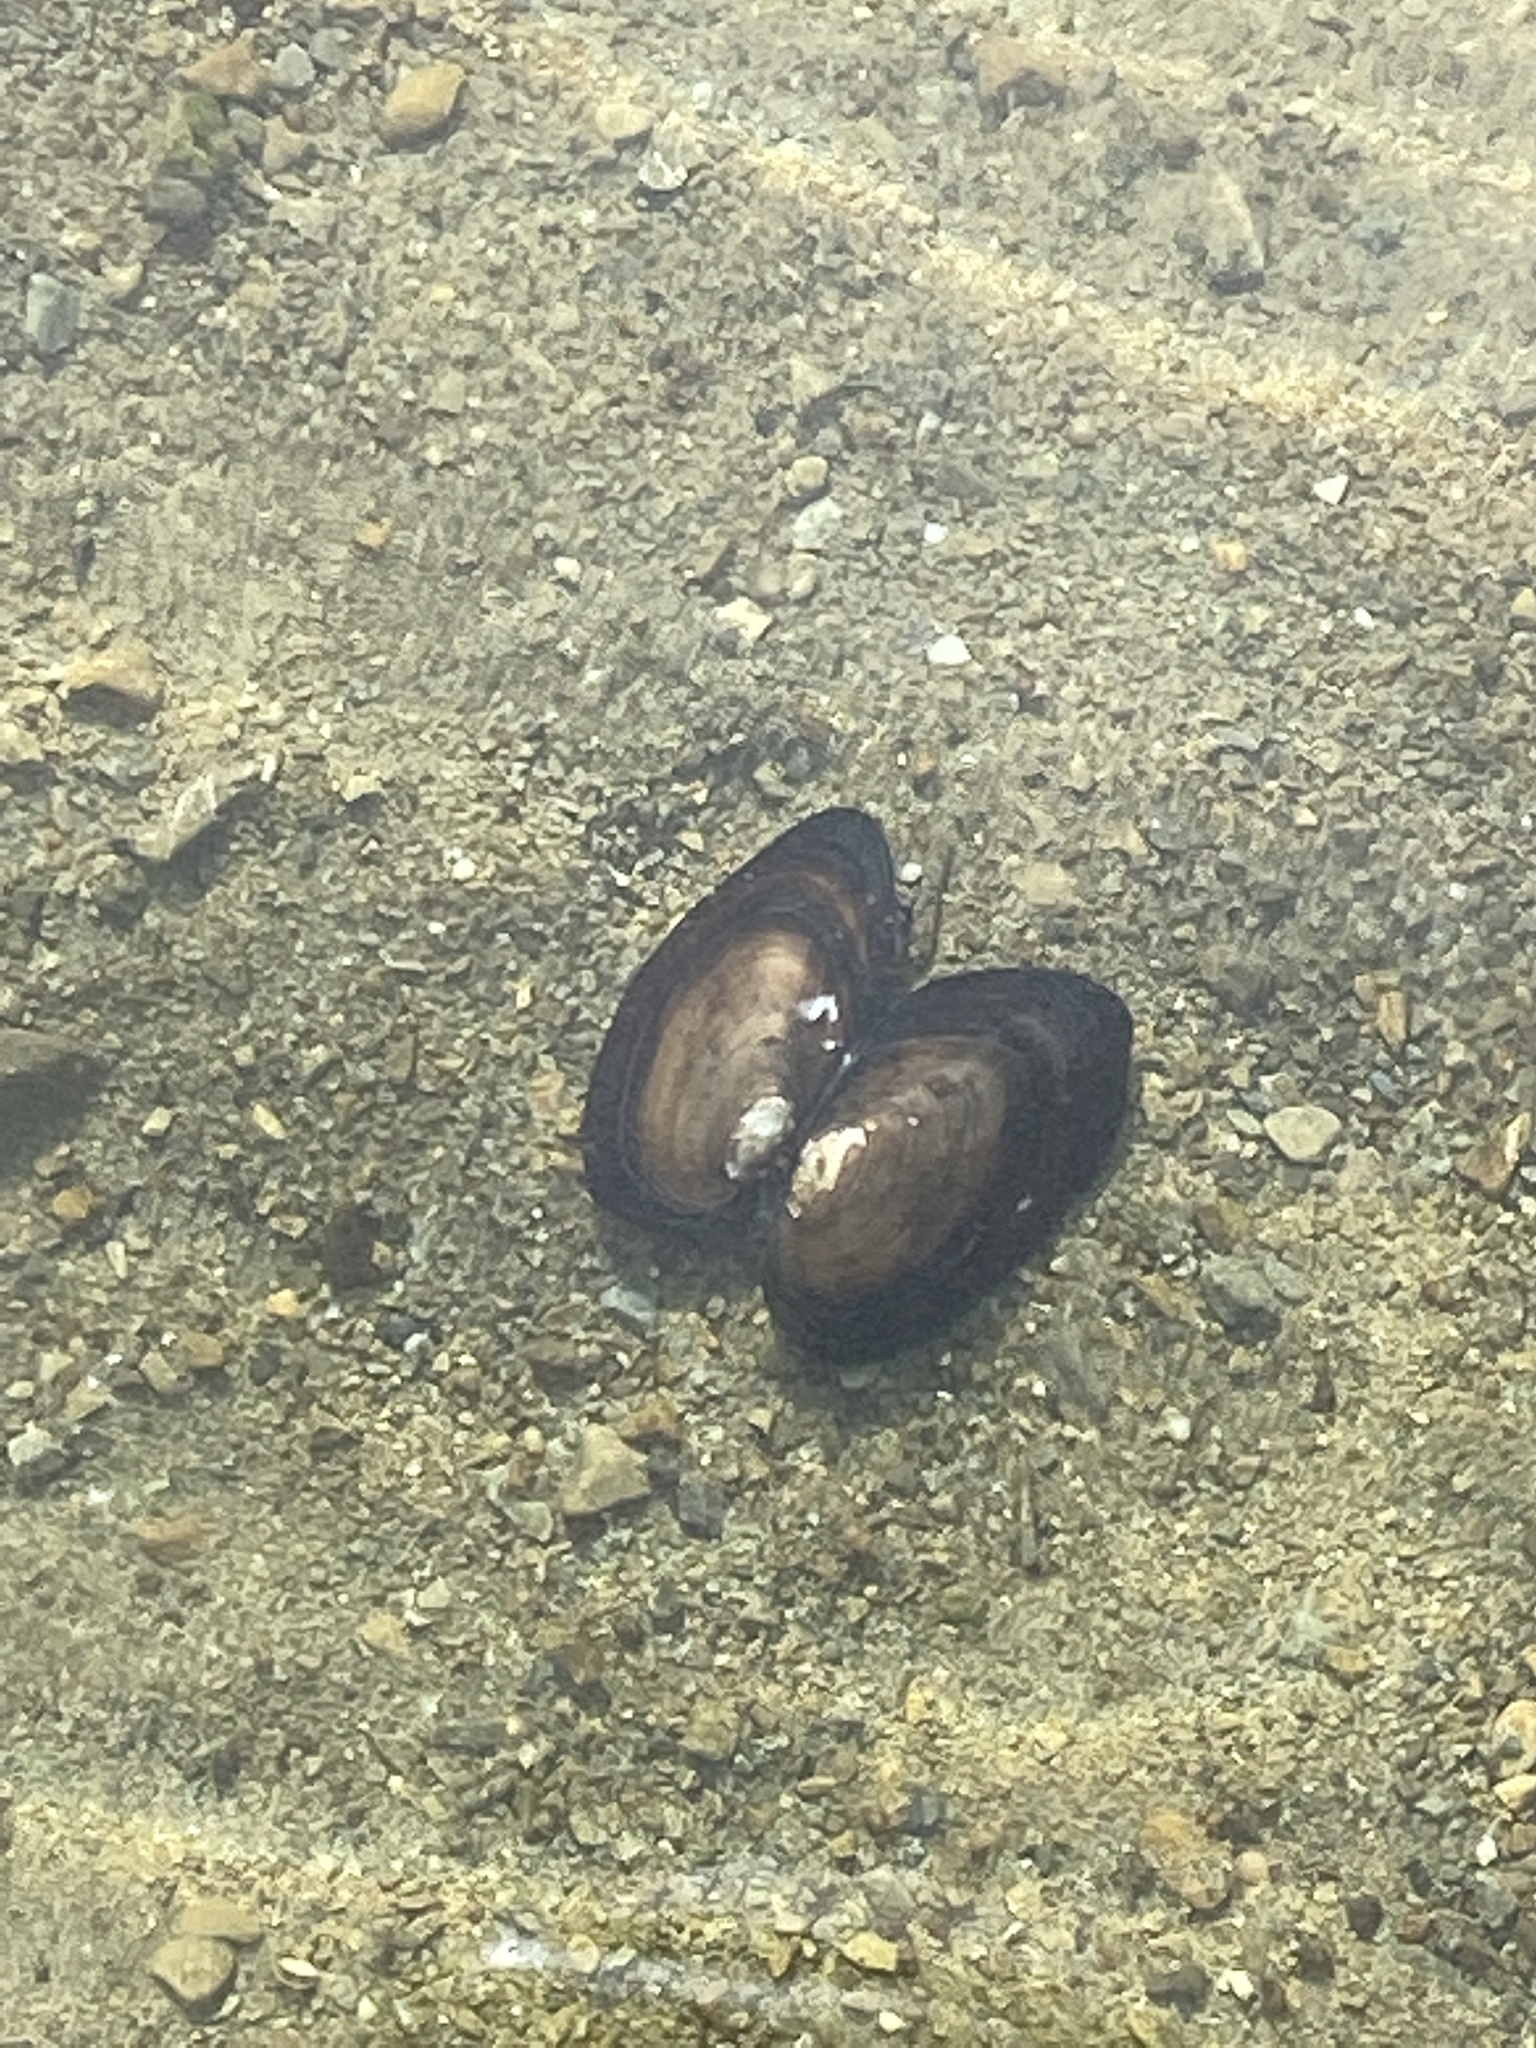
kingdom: Animalia
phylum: Mollusca
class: Bivalvia
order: Unionida
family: Hyriidae
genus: Echyridella
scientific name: Echyridella menziesii
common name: New zealand freshwater mussel
